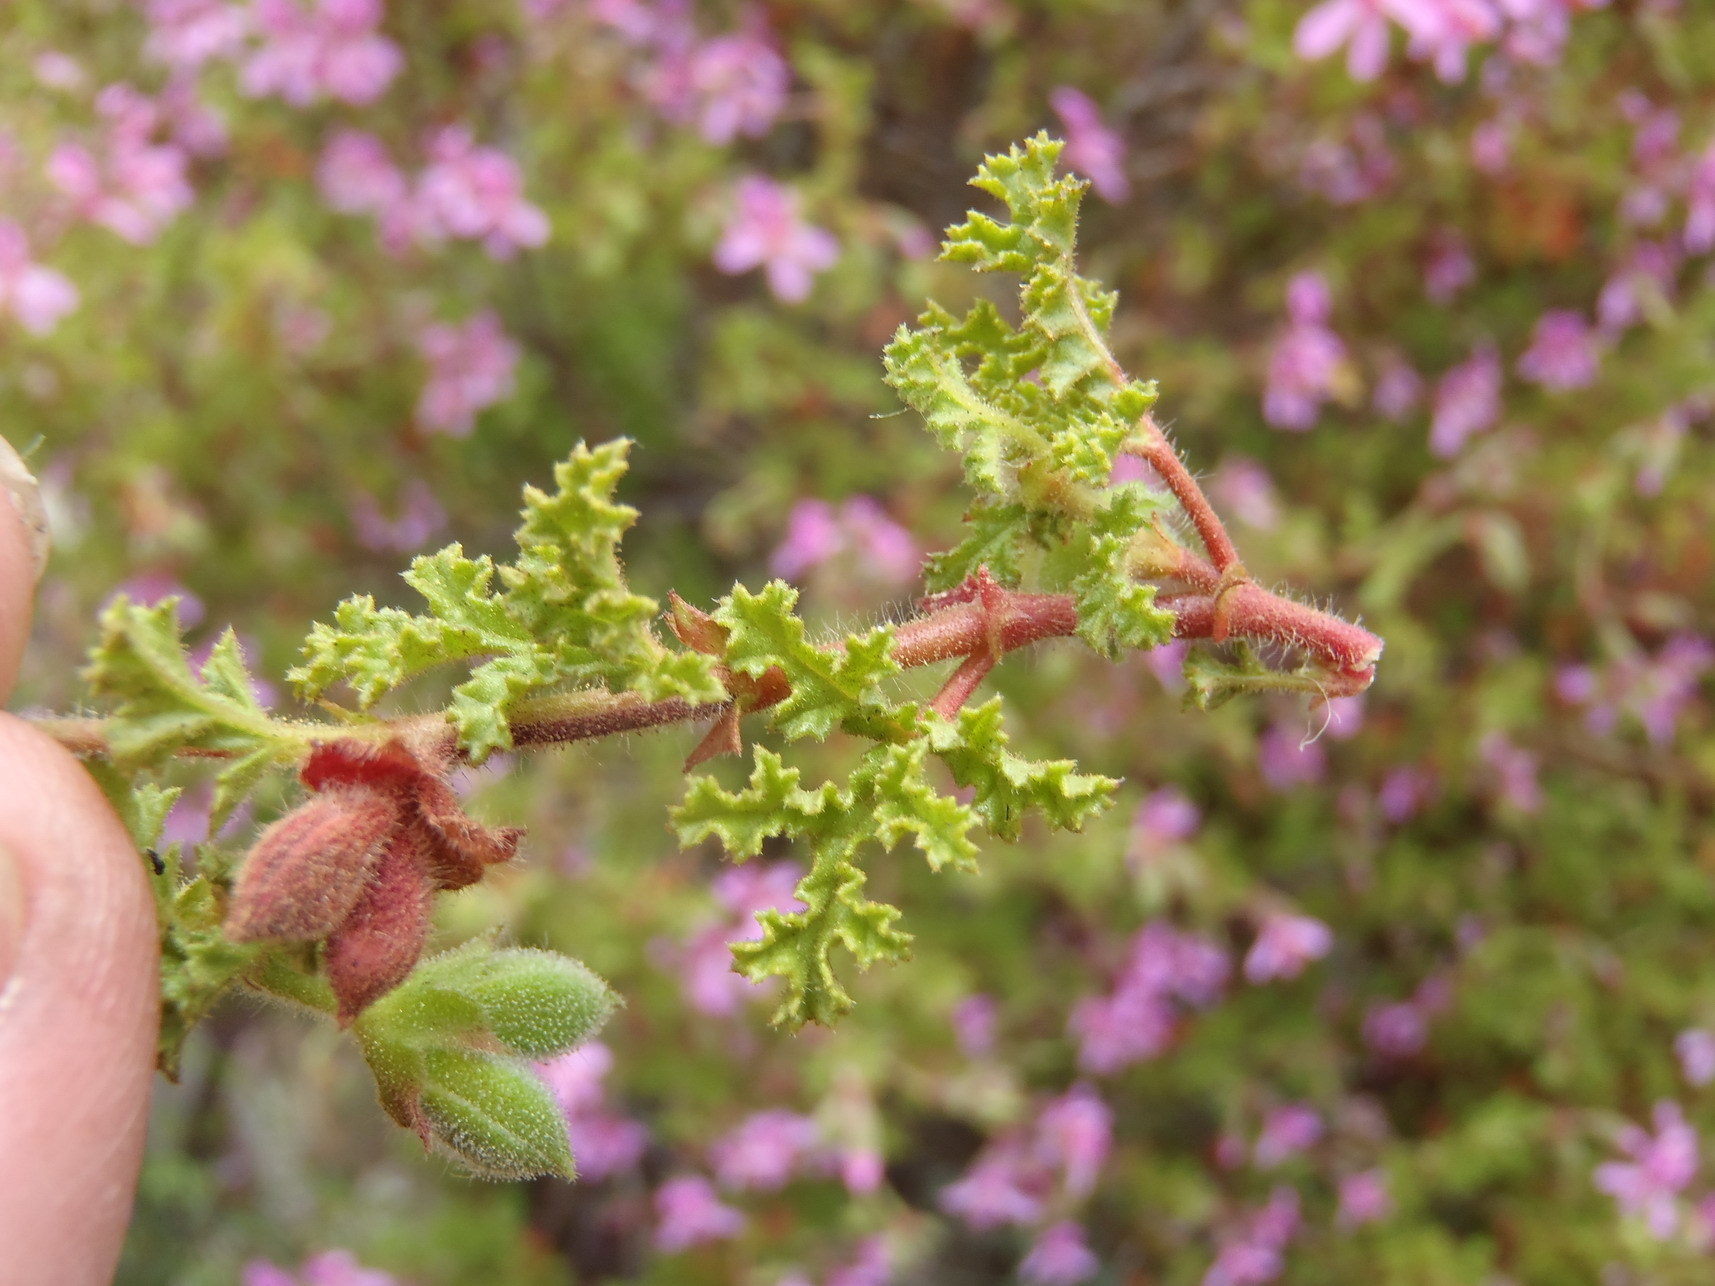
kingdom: Plantae
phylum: Tracheophyta
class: Magnoliopsida
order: Geraniales
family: Geraniaceae
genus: Pelargonium
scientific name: Pelargonium pseudoglutinosum
